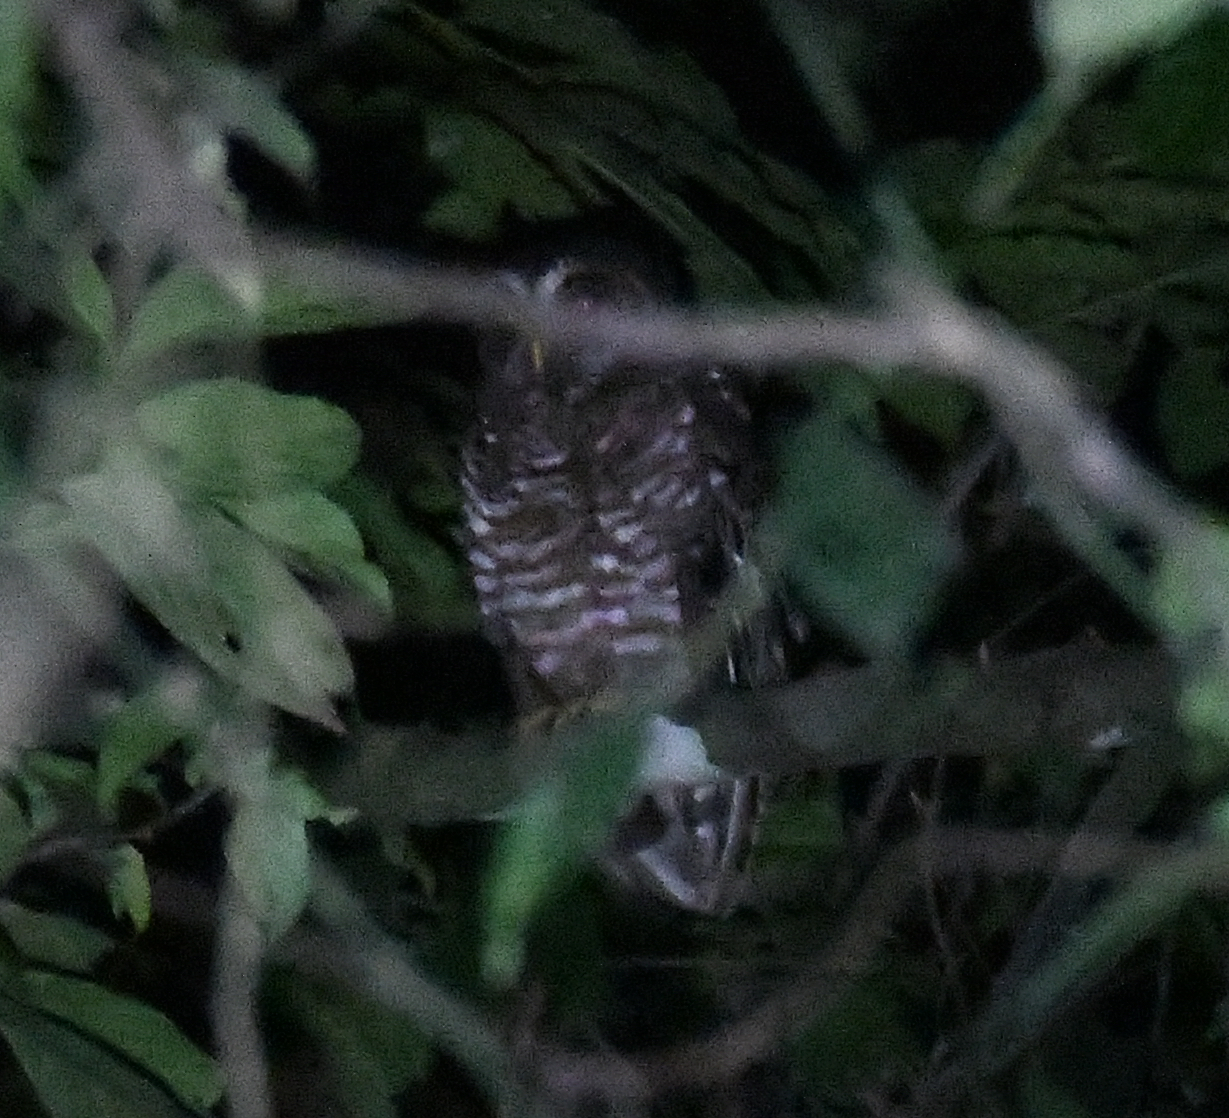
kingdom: Animalia
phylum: Chordata
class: Aves
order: Strigiformes
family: Strigidae
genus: Strix
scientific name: Strix woodfordii
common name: African wood owl
